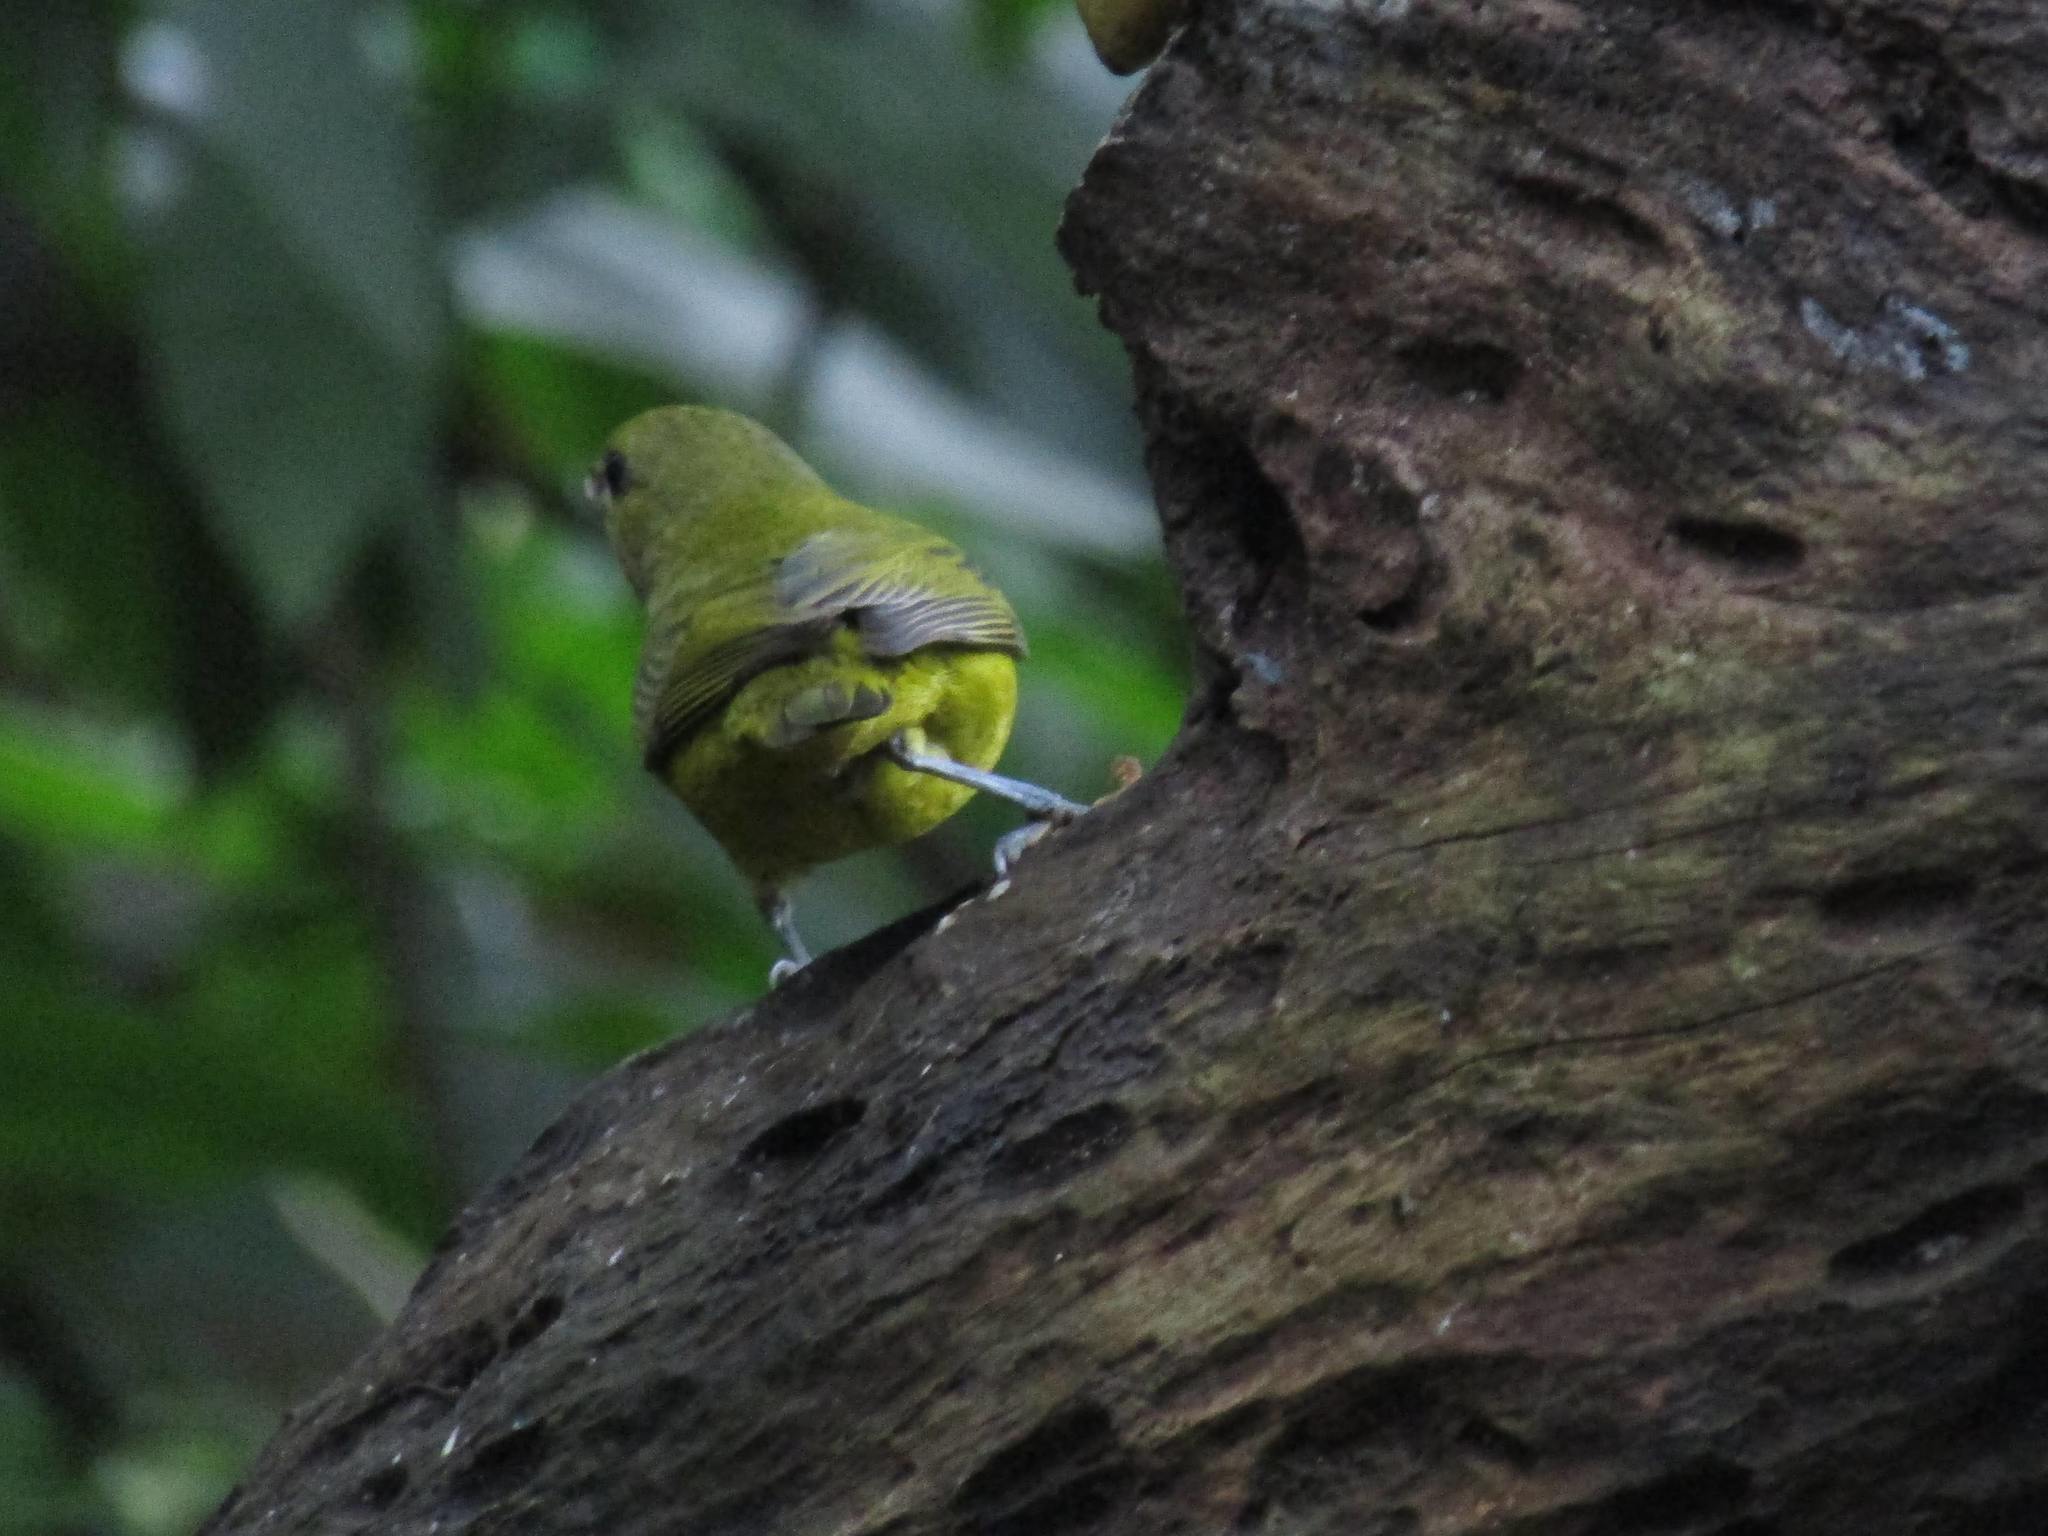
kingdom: Animalia
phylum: Chordata
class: Aves
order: Passeriformes
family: Fringillidae
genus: Euphonia
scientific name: Euphonia violacea
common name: Violaceous euphonia
